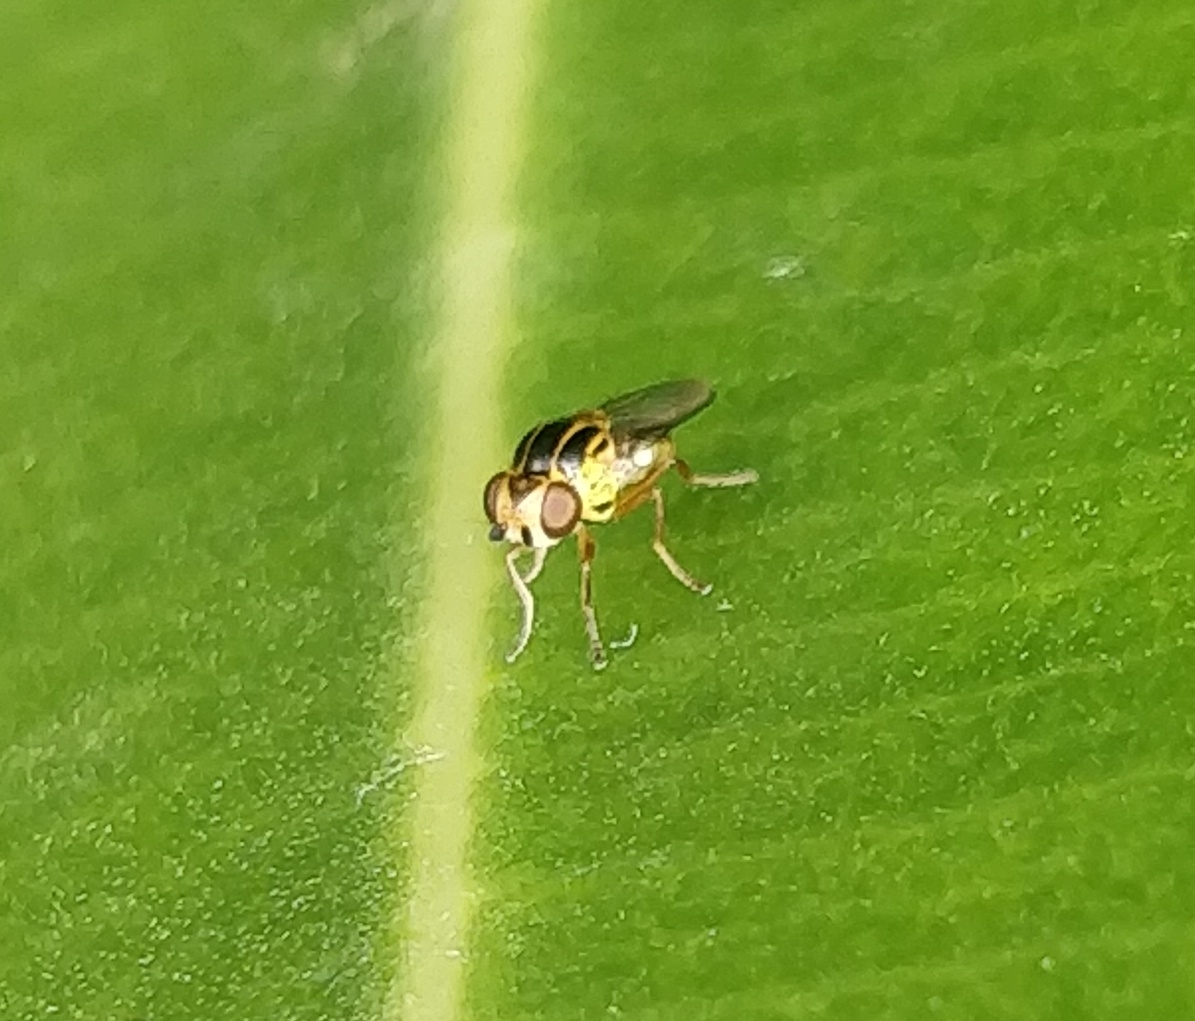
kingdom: Animalia
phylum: Arthropoda
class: Insecta
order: Diptera
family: Chloropidae
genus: Thaumatomyia
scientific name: Thaumatomyia notata
